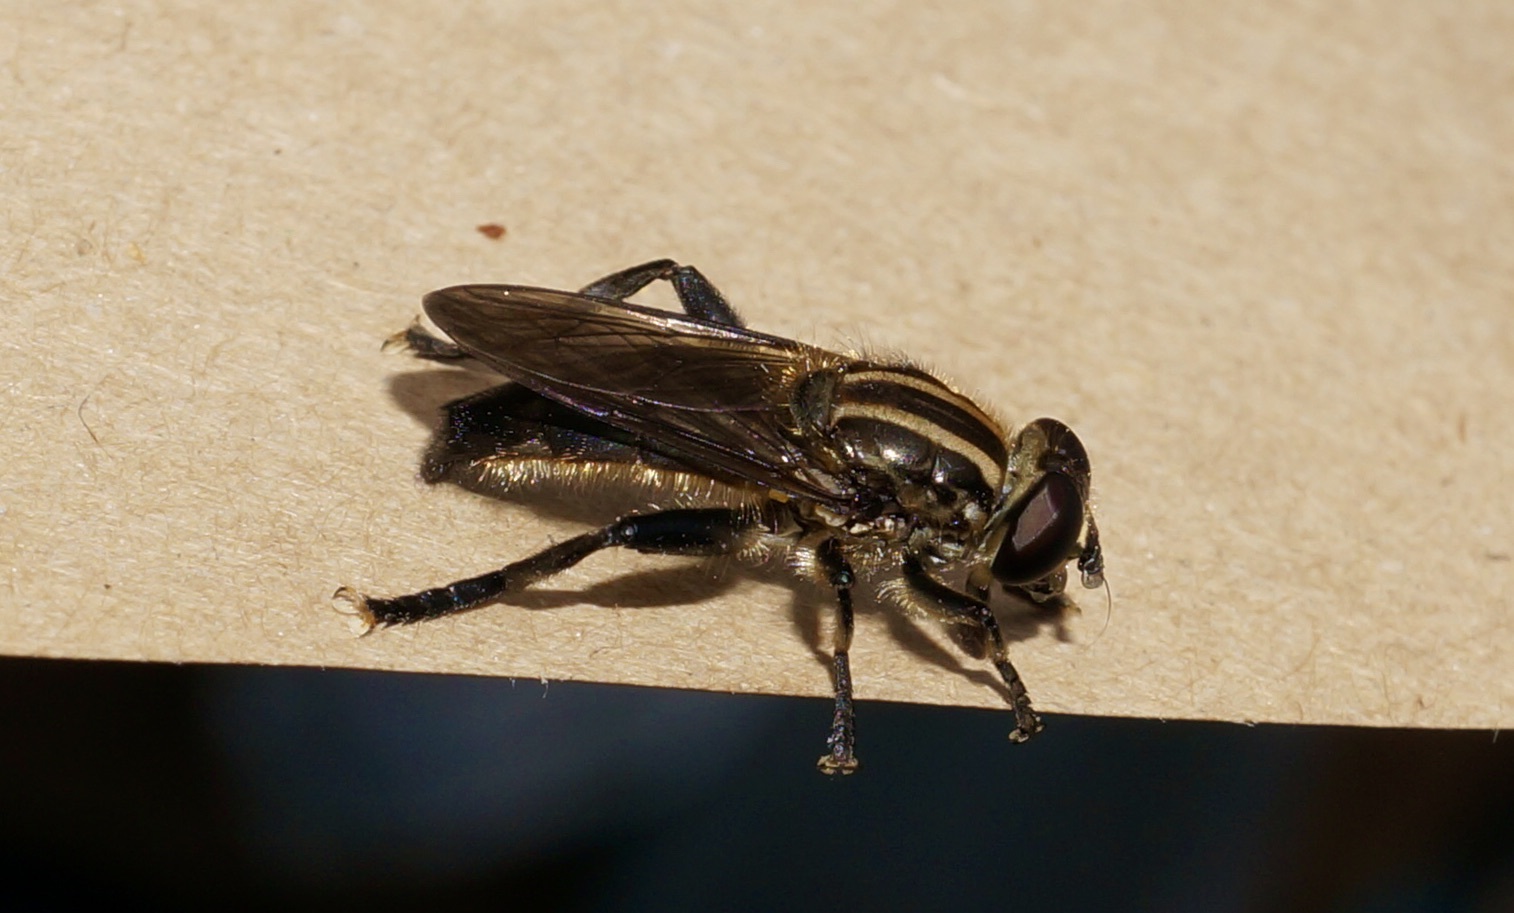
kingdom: Animalia
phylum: Arthropoda
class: Insecta
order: Diptera
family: Syrphidae
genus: Orthoprosopa
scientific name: Orthoprosopa bilineata
